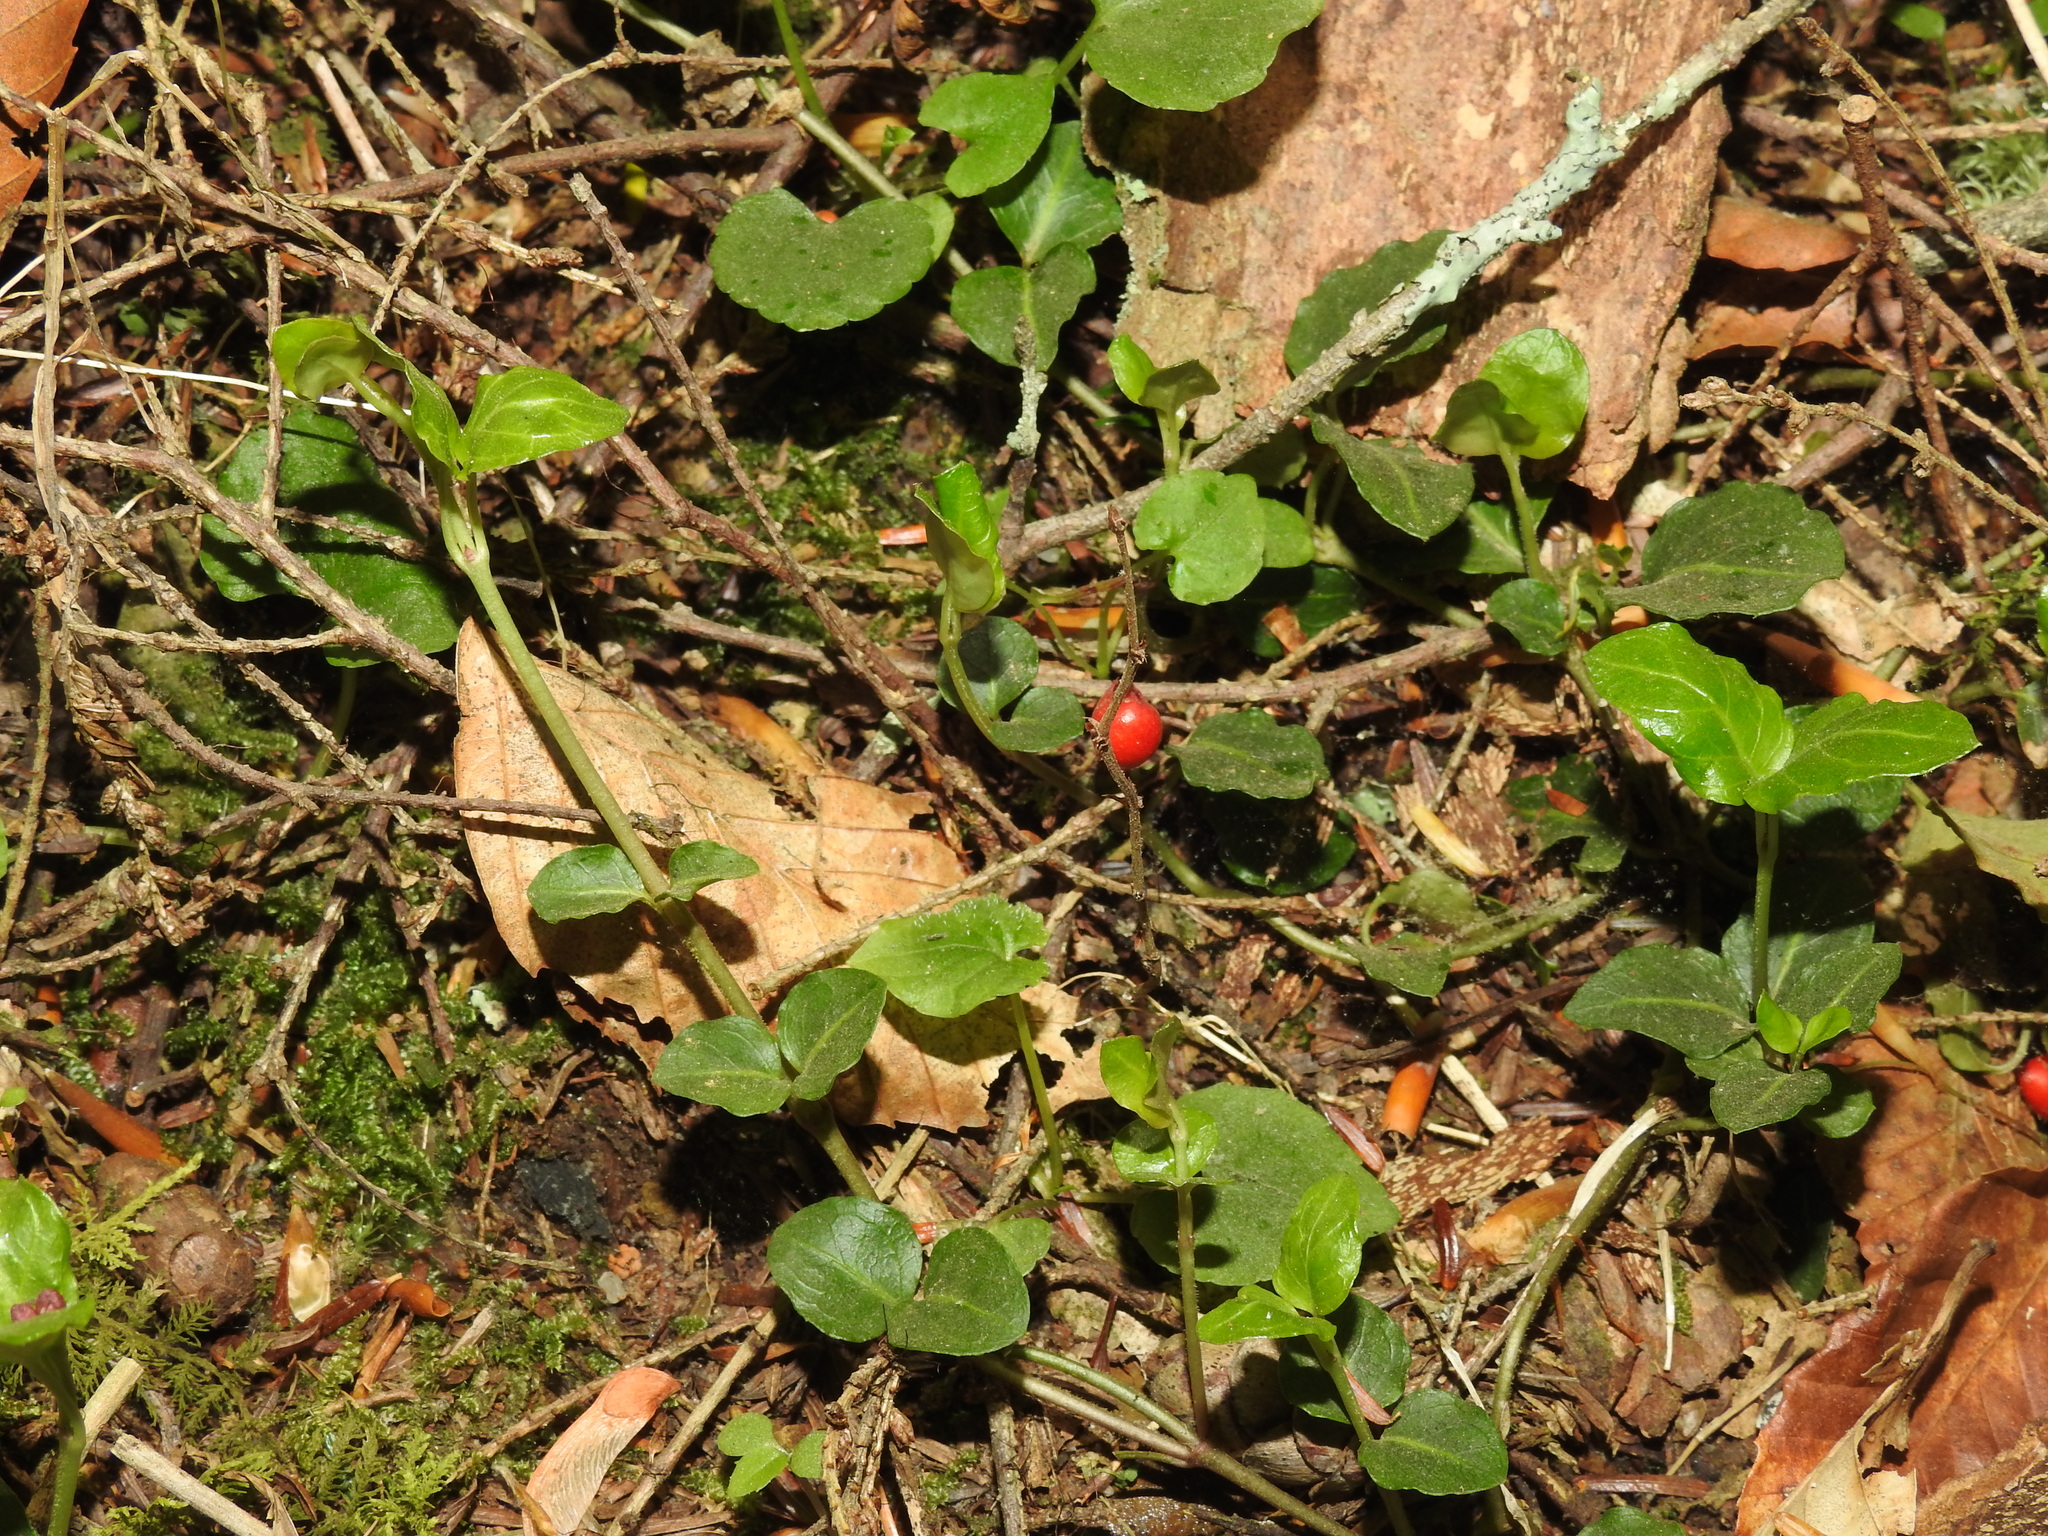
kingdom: Plantae
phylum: Tracheophyta
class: Magnoliopsida
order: Gentianales
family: Rubiaceae
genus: Mitchella
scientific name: Mitchella repens
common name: Partridge-berry
